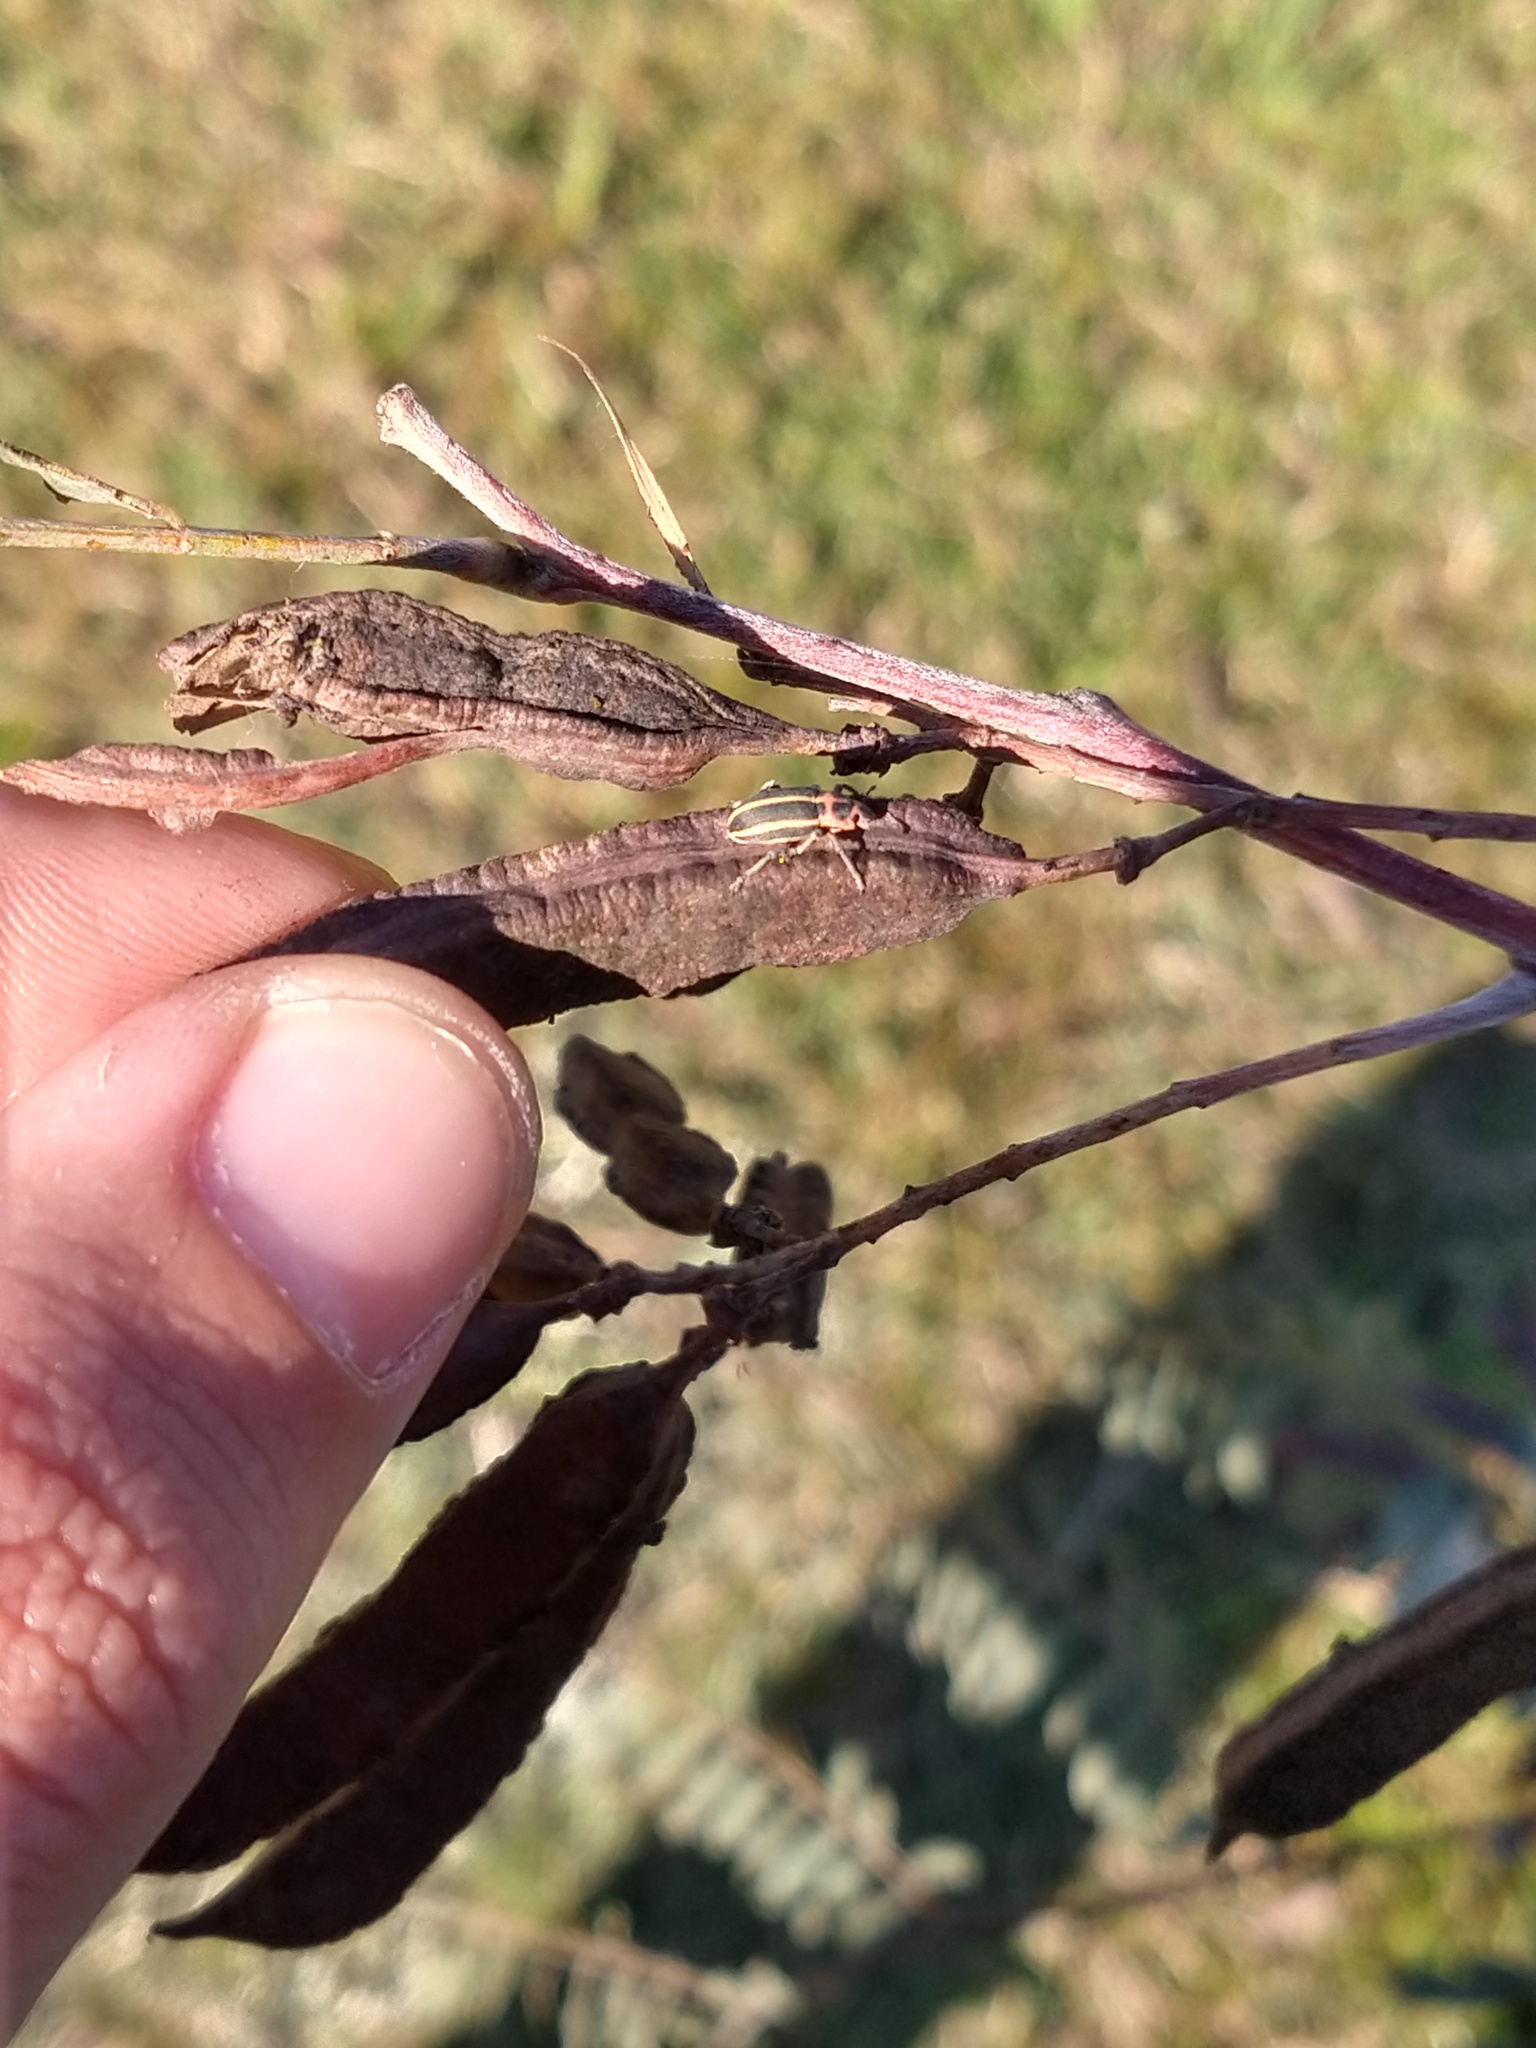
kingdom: Animalia
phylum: Arthropoda
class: Insecta
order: Coleoptera
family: Curculionidae
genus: Eudiagogus
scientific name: Eudiagogus episcopalis
